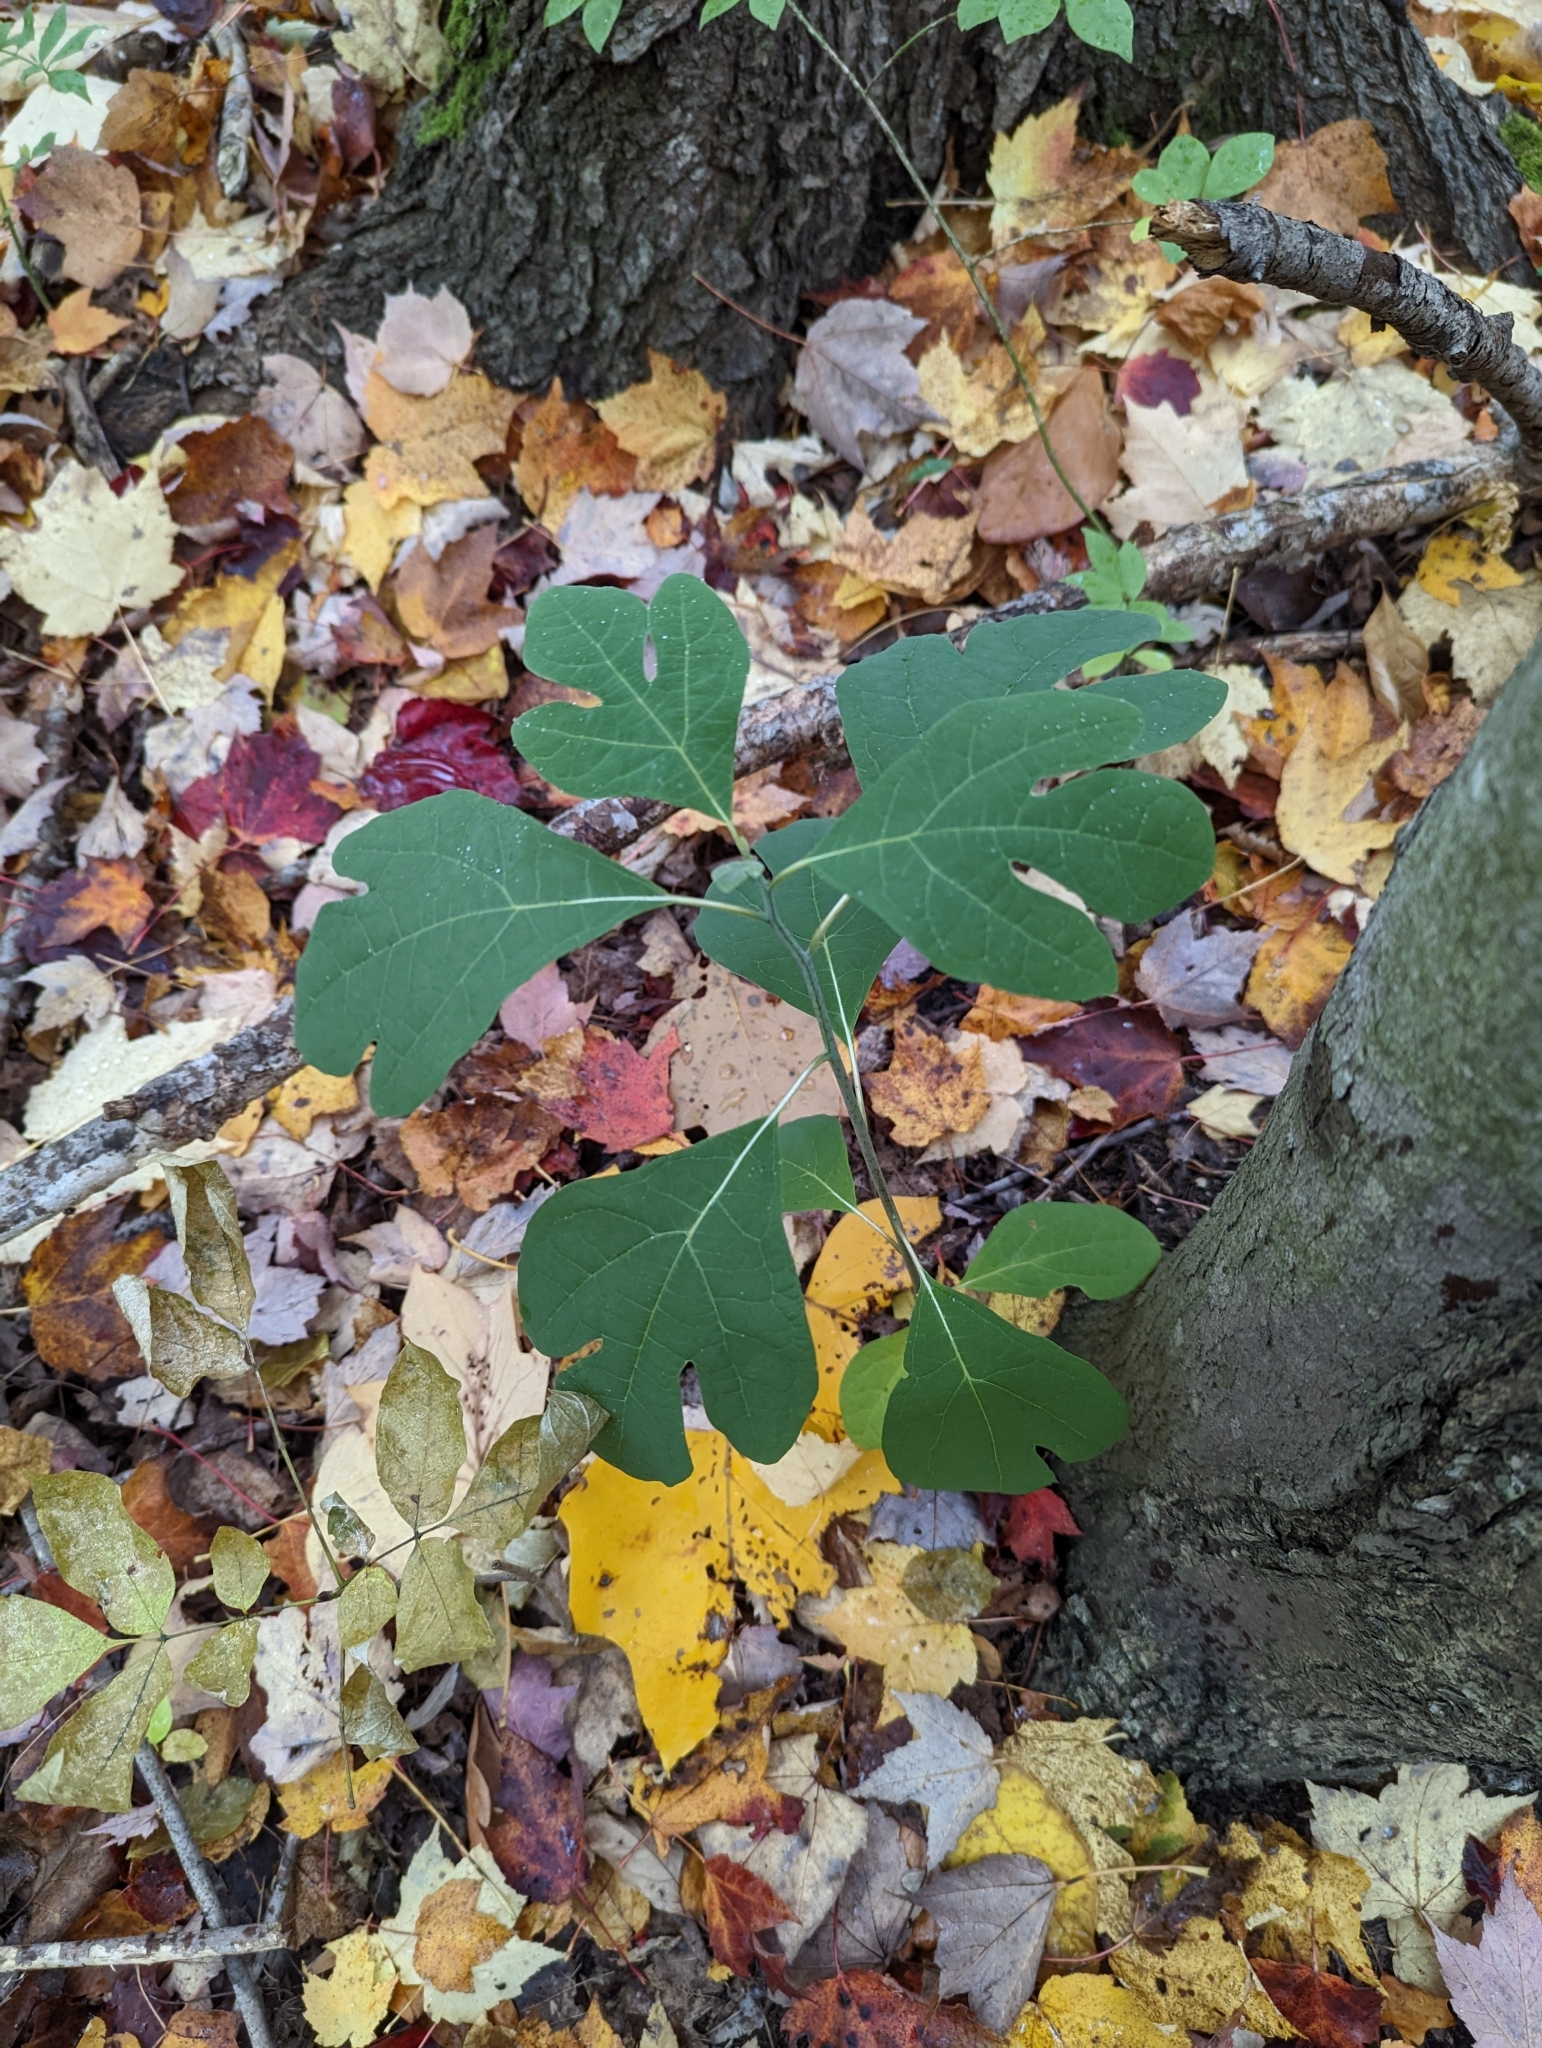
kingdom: Plantae
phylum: Tracheophyta
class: Magnoliopsida
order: Laurales
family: Lauraceae
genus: Sassafras
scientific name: Sassafras albidum
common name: Sassafras
